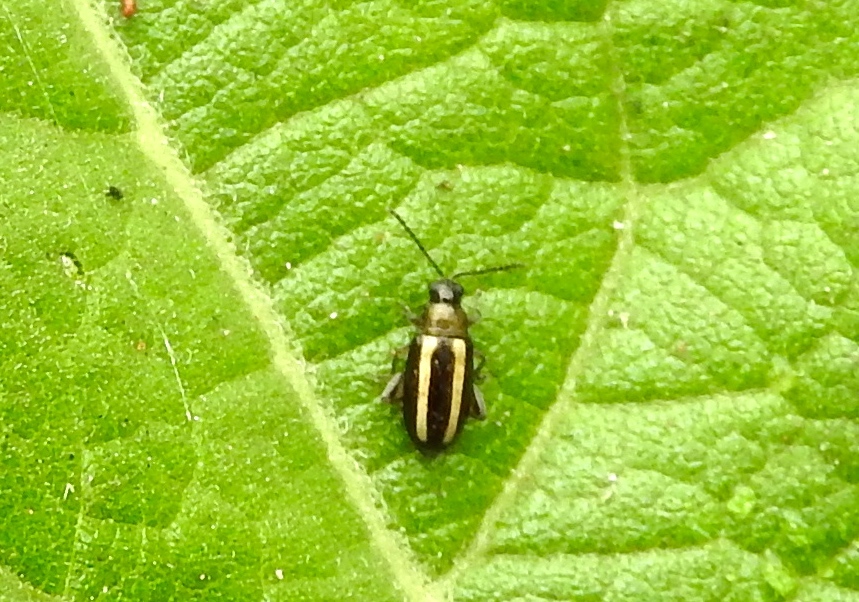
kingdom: Animalia
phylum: Arthropoda
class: Insecta
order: Coleoptera
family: Chrysomelidae
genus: Systena
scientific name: Systena
